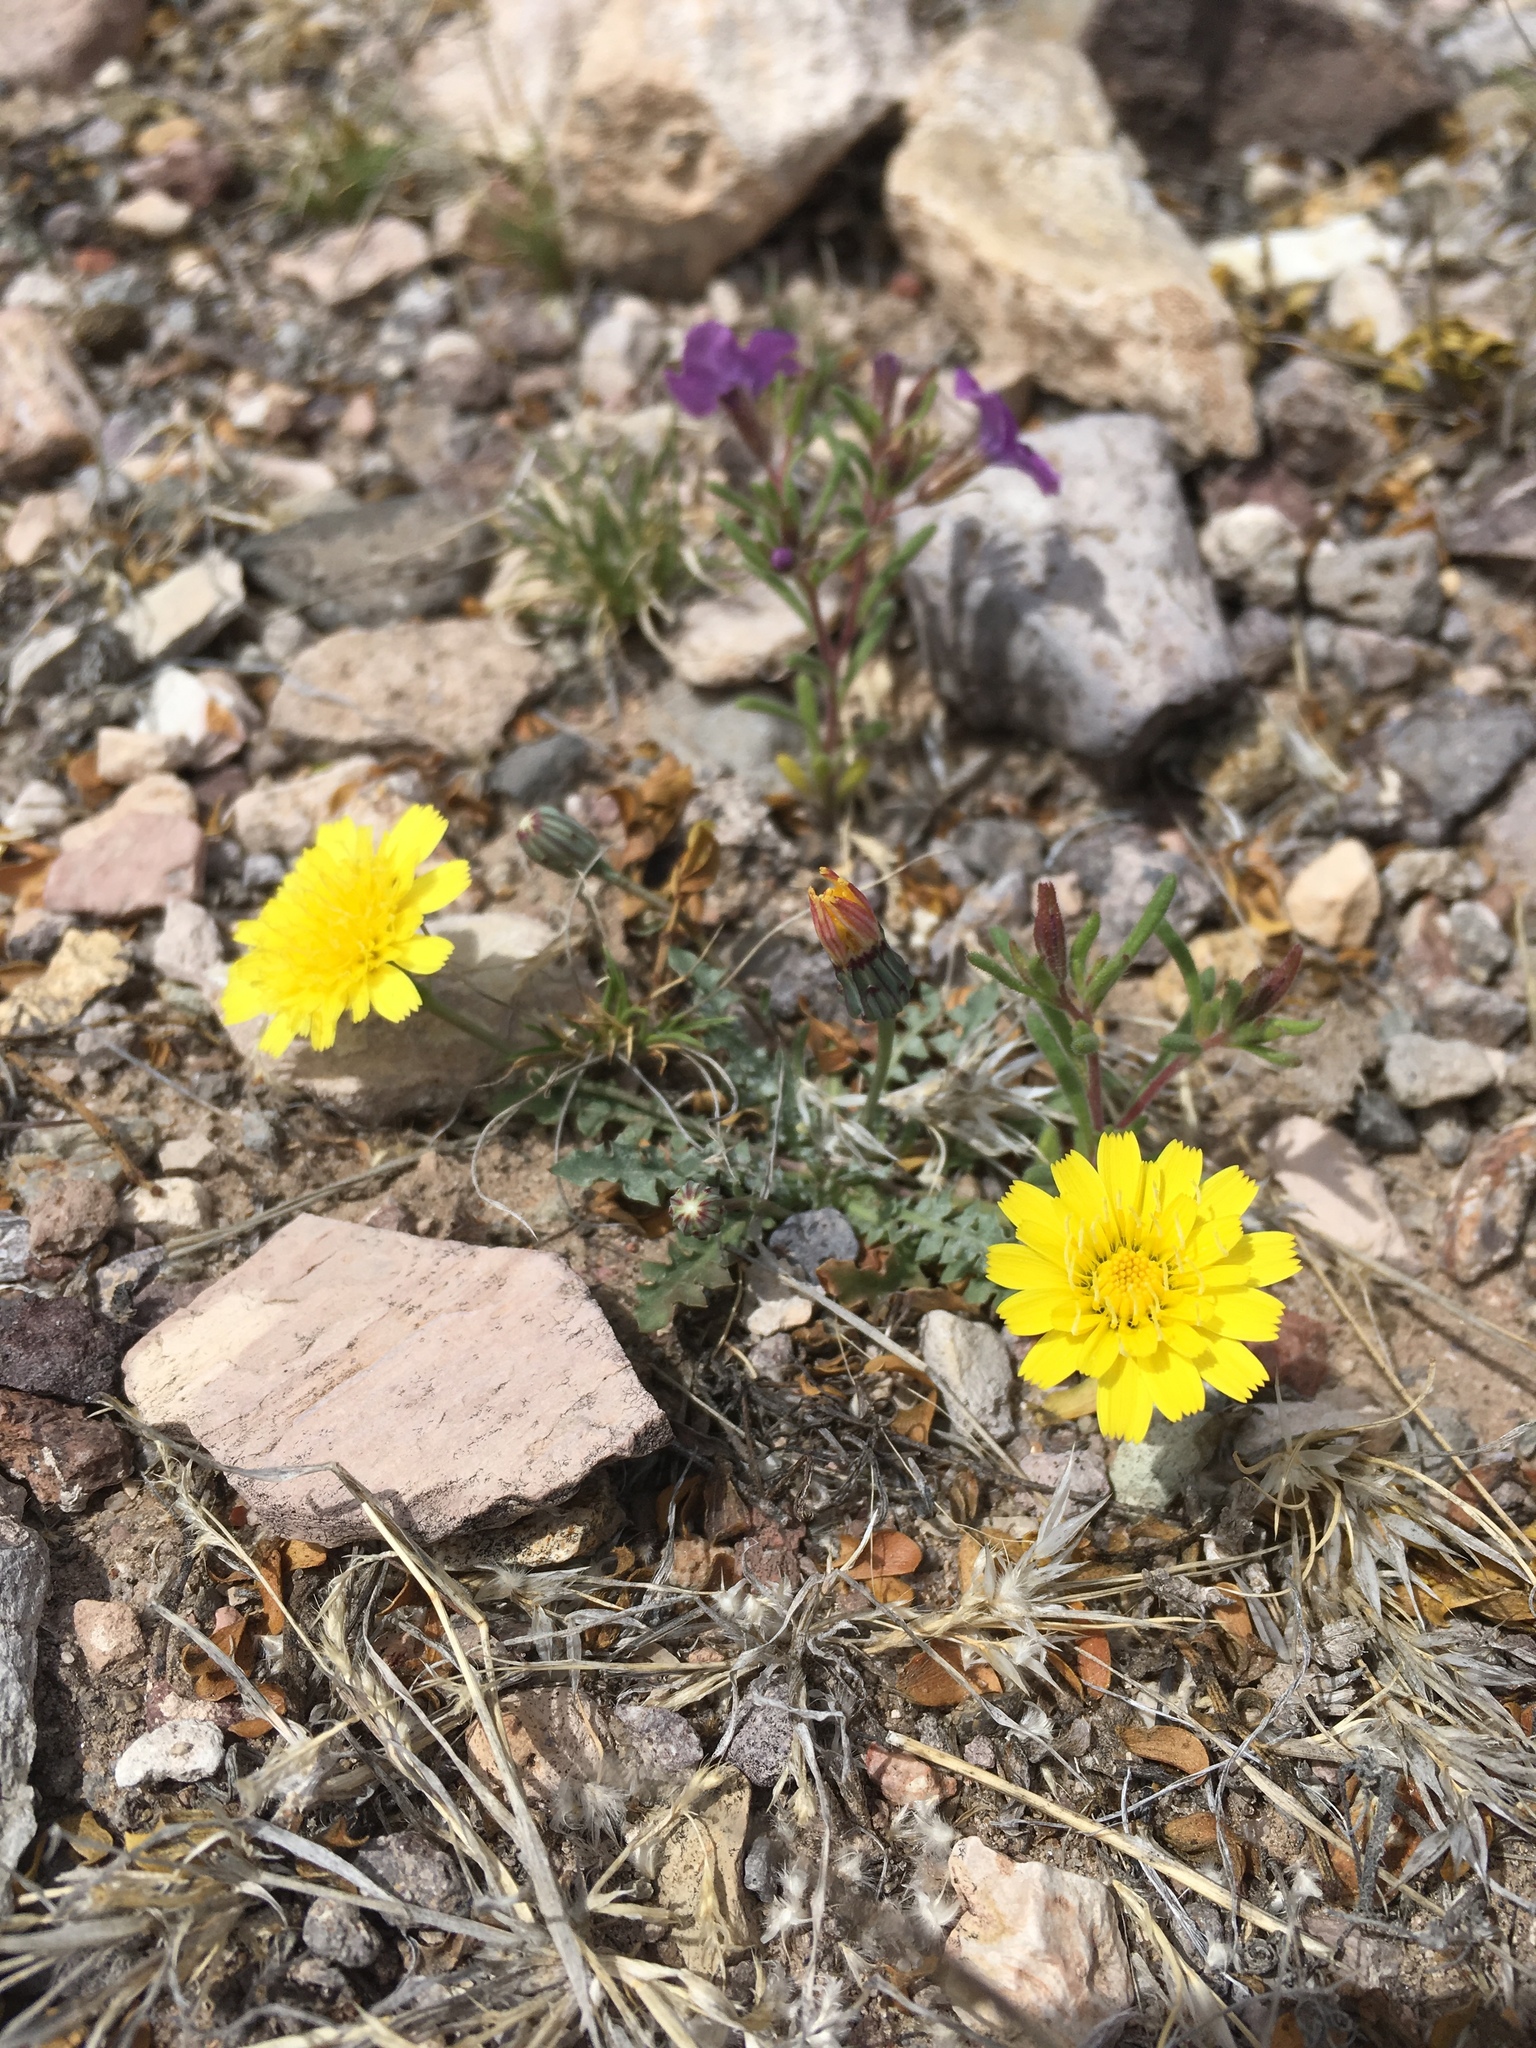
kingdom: Plantae
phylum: Tracheophyta
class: Magnoliopsida
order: Asterales
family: Asteraceae
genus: Malacothrix
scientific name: Malacothrix fendleri
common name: Fendler's desert-dandelion
